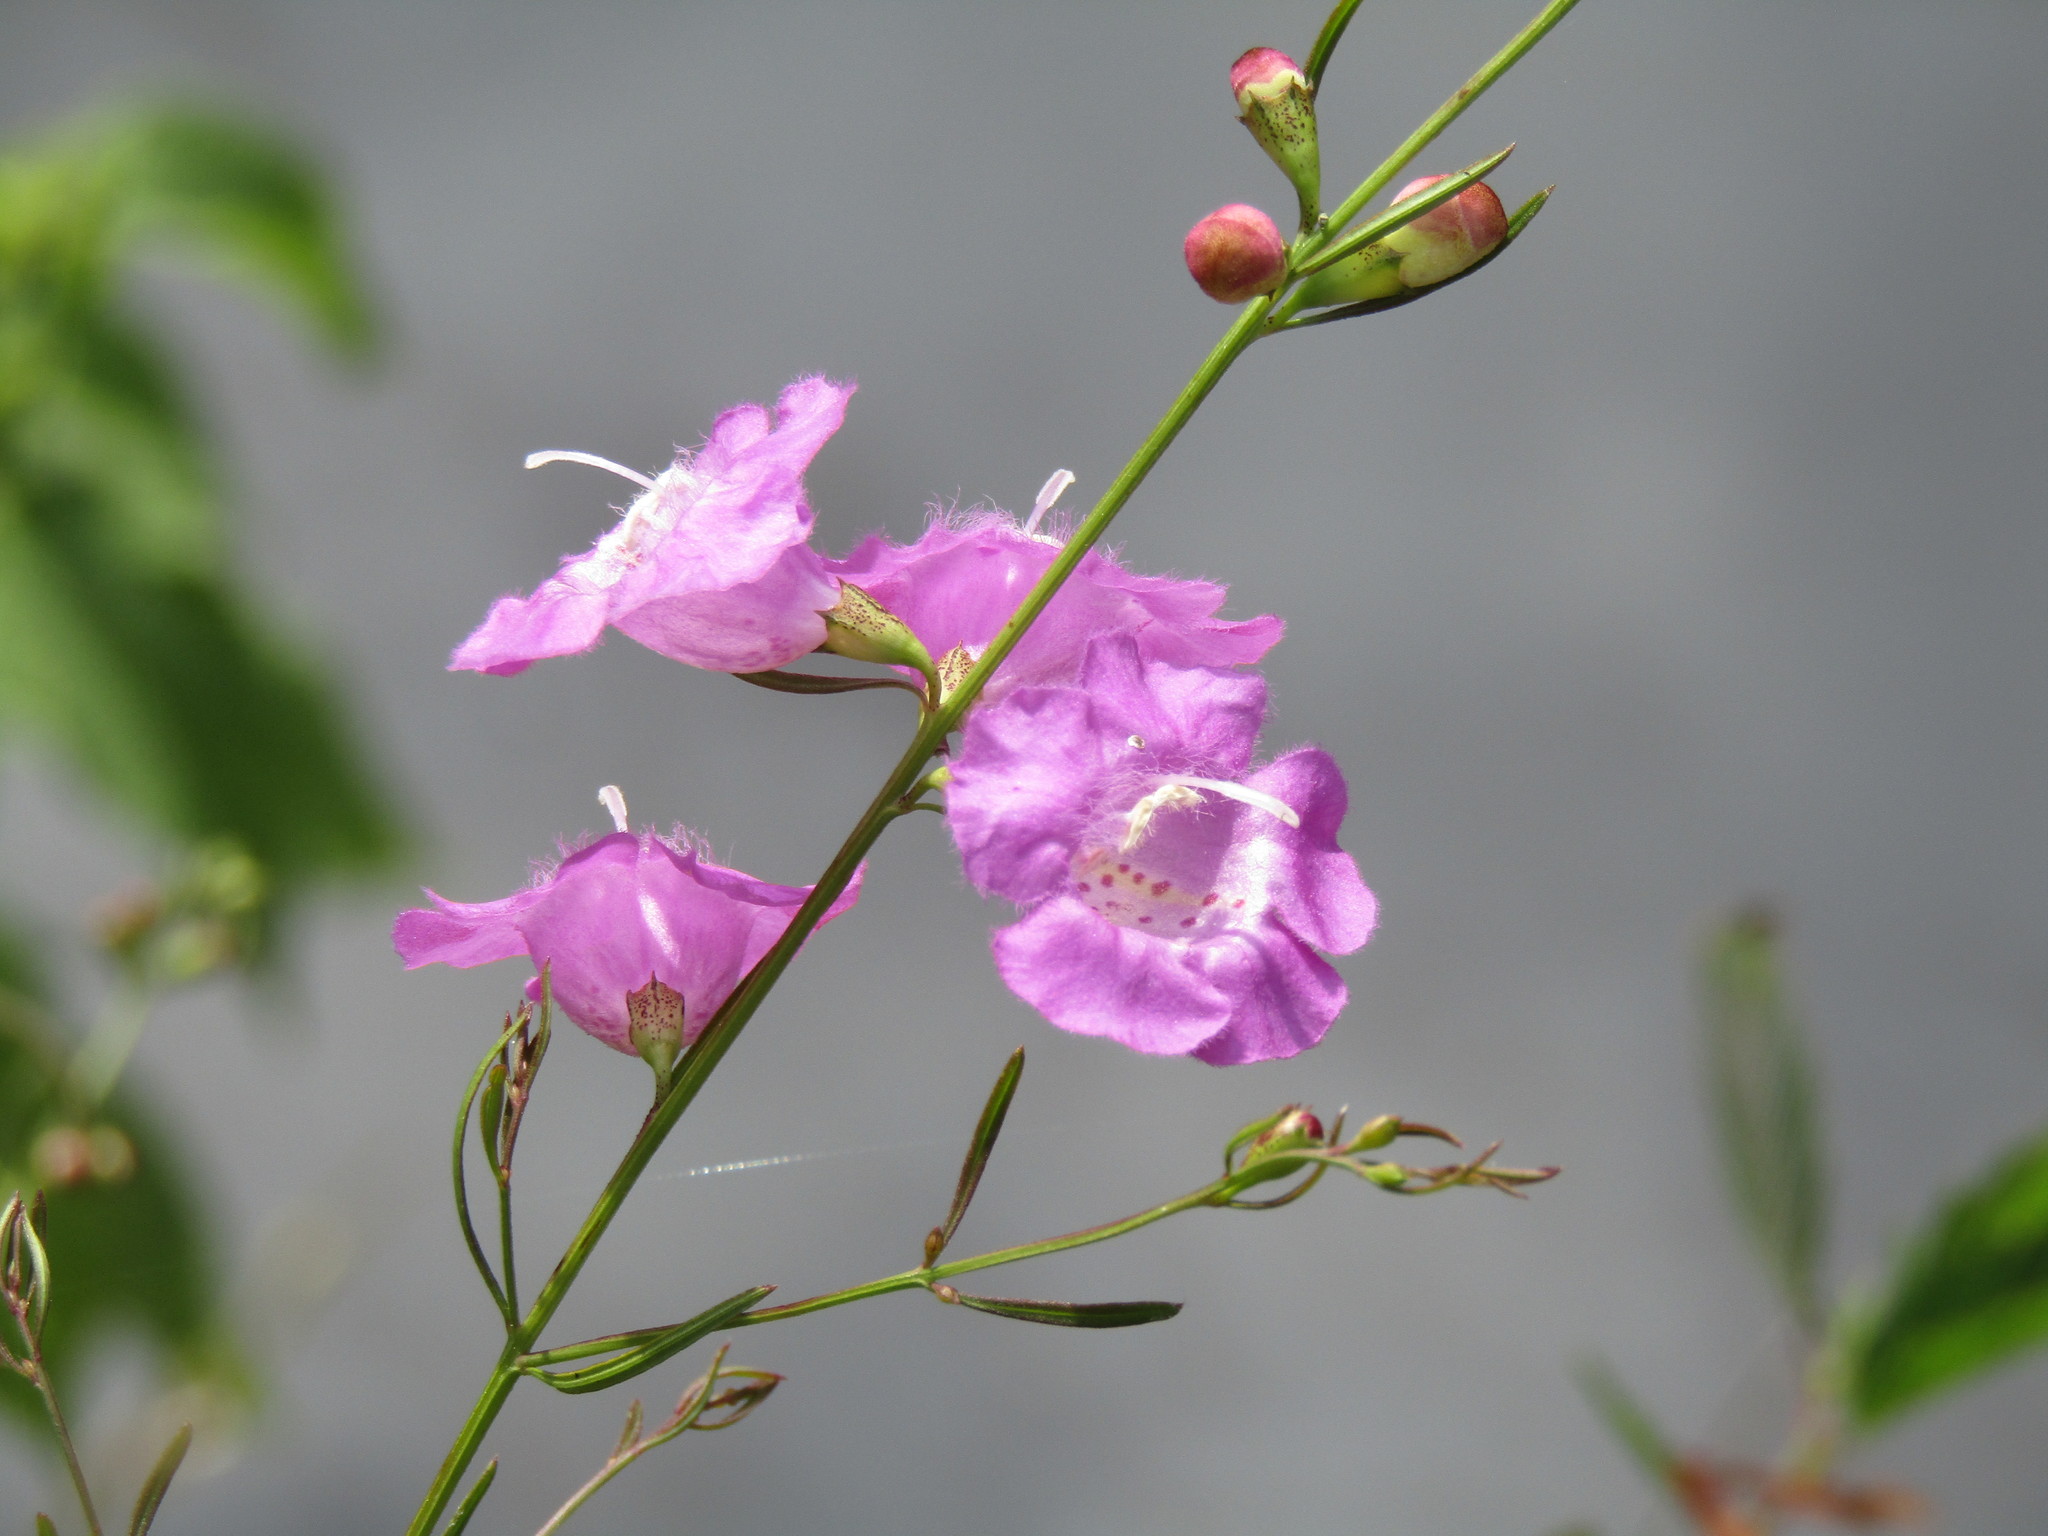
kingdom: Plantae
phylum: Tracheophyta
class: Magnoliopsida
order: Lamiales
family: Orobanchaceae
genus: Agalinis
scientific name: Agalinis purpurea
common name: Purple false foxglove
